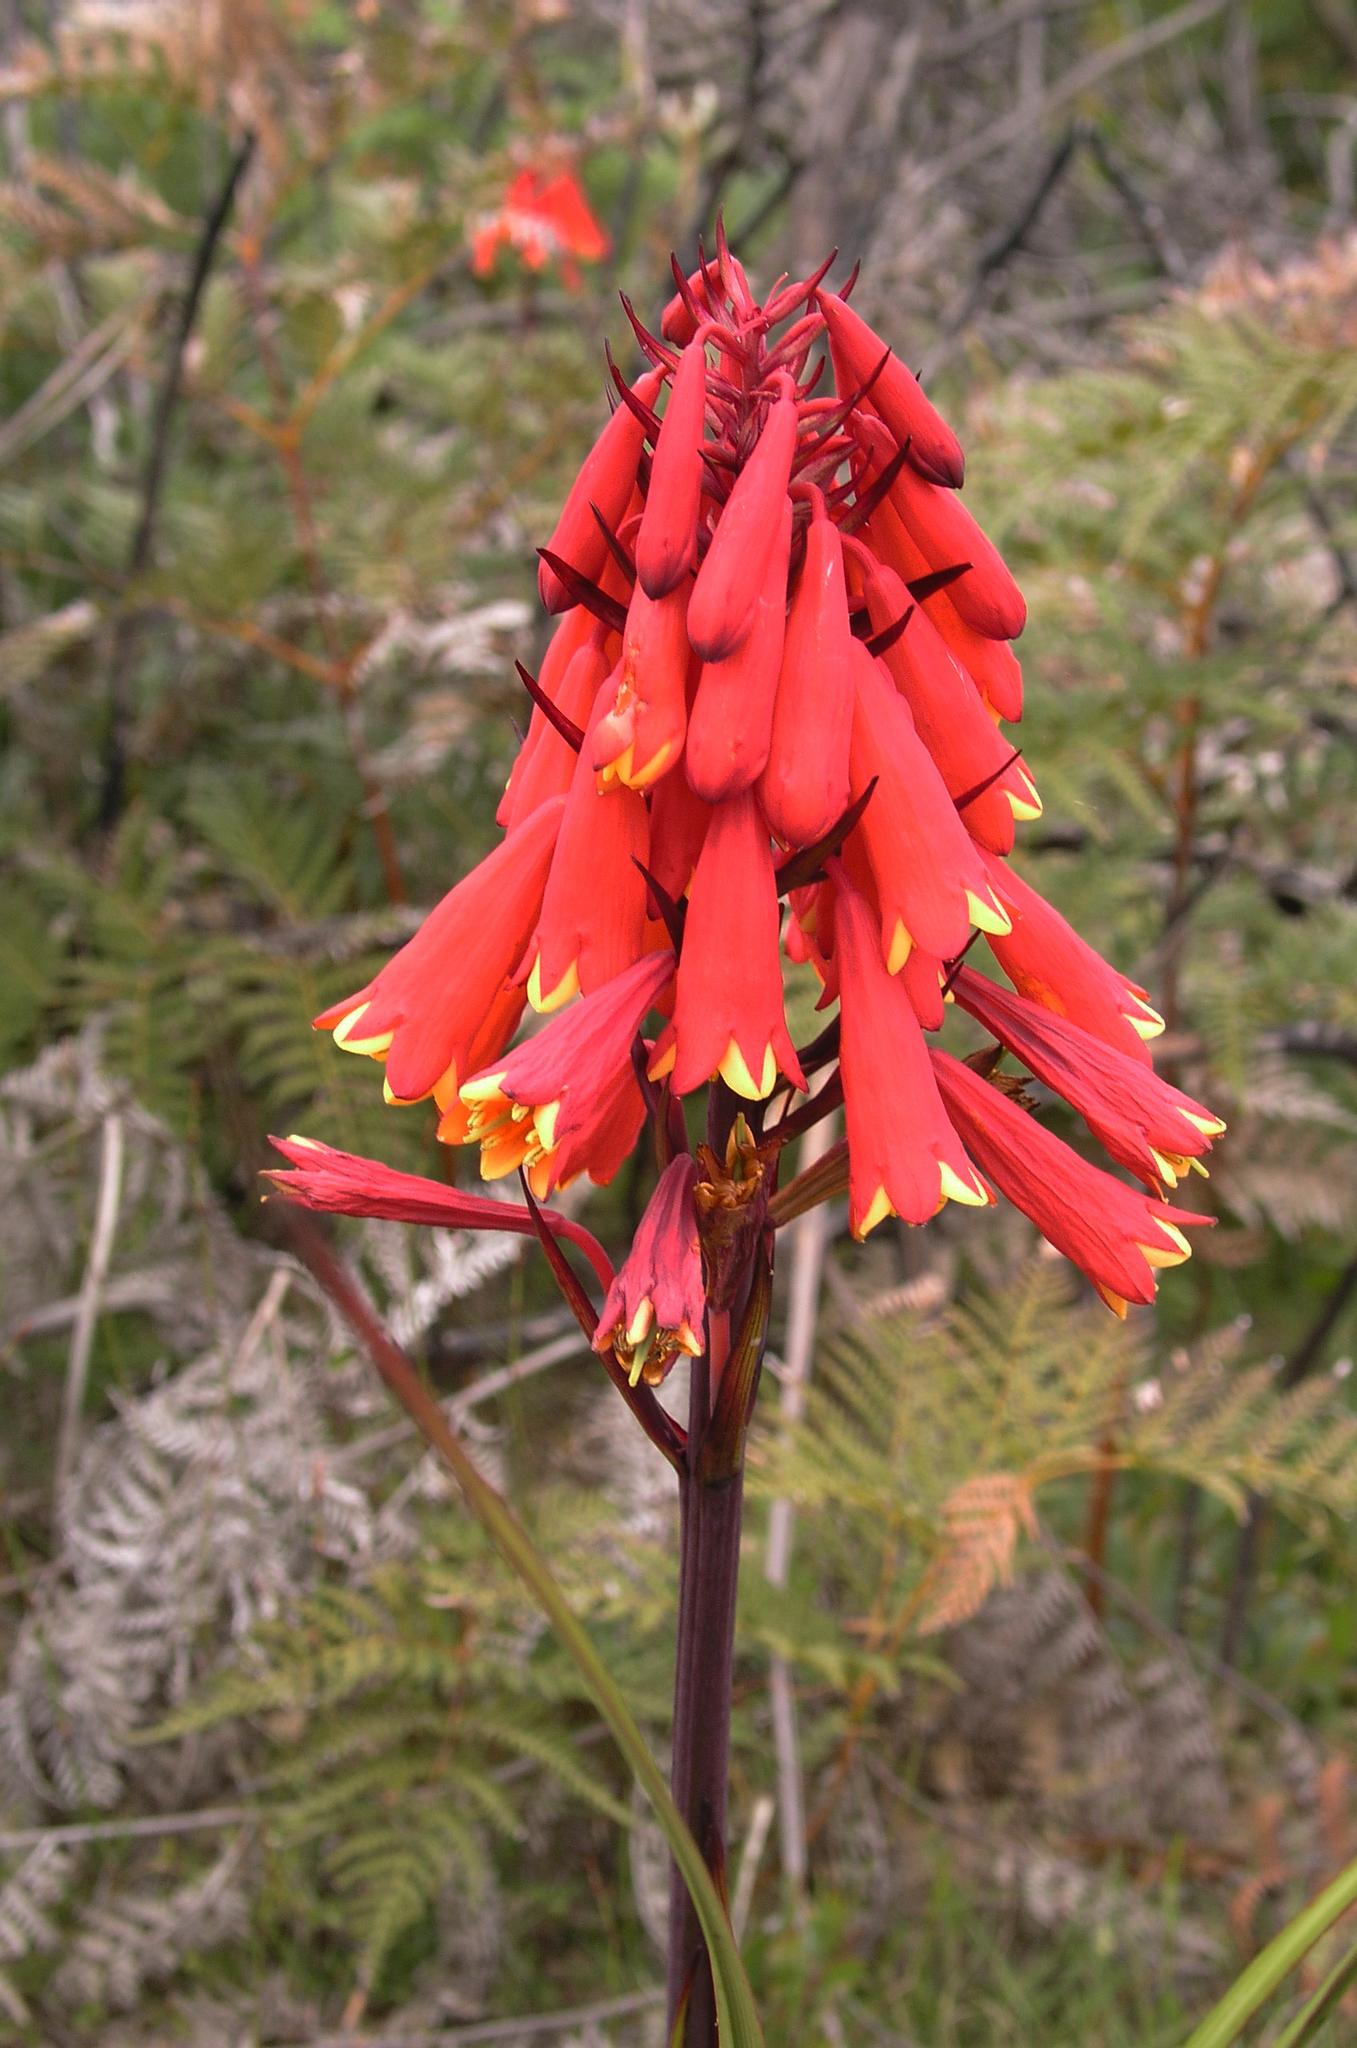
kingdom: Plantae
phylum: Tracheophyta
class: Liliopsida
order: Asparagales
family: Blandfordiaceae
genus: Blandfordia
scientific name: Blandfordia punicea
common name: Tasmanian christmas-bell
